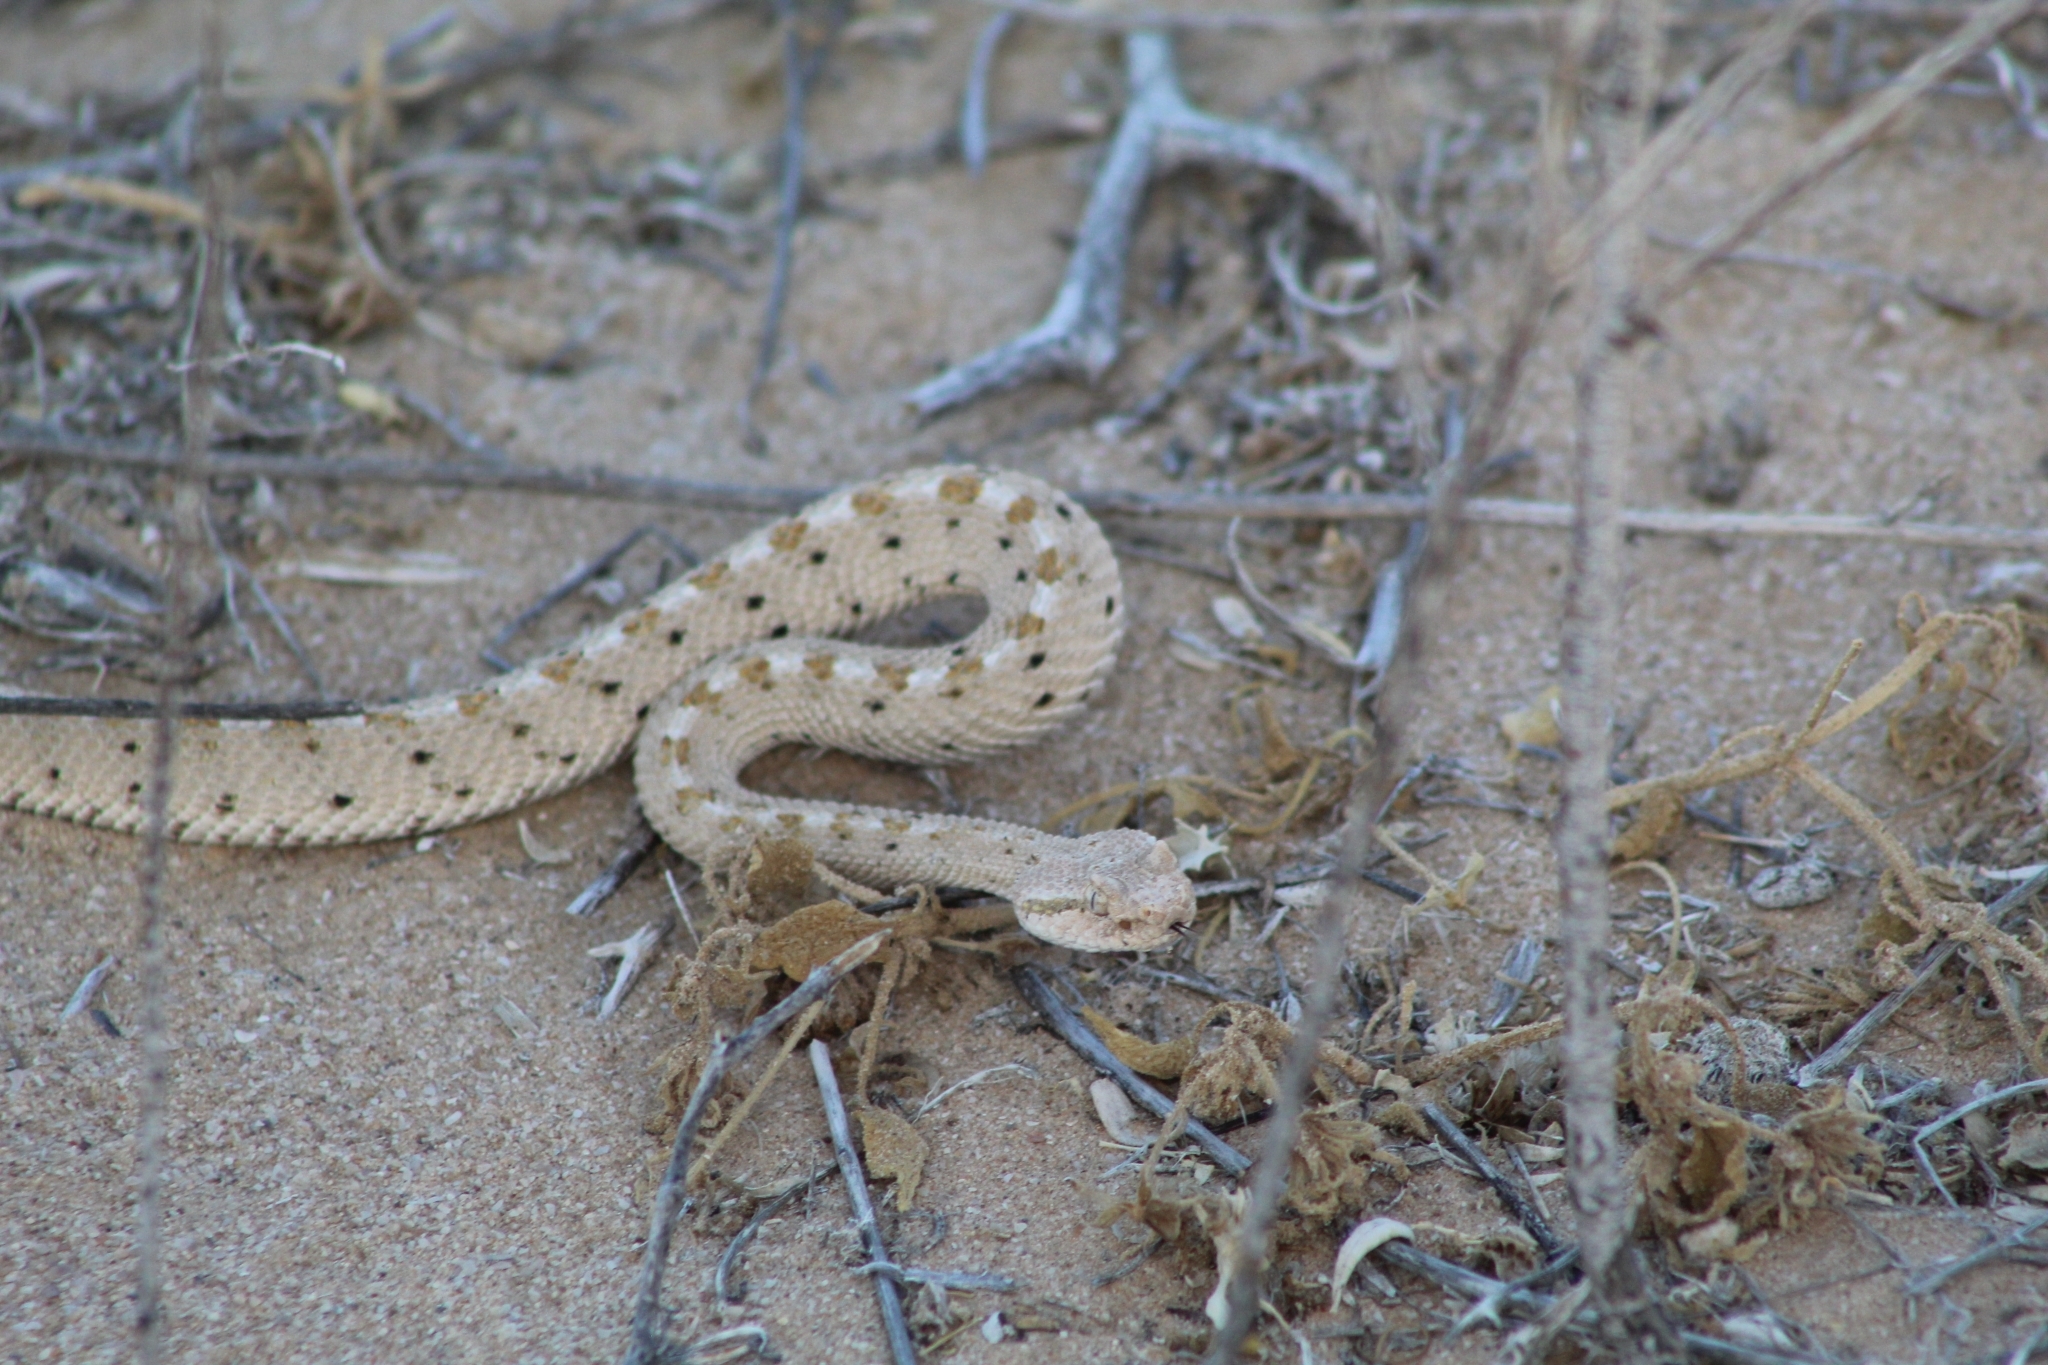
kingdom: Animalia
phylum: Chordata
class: Squamata
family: Viperidae
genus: Crotalus
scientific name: Crotalus cerastes
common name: Sidewinder
